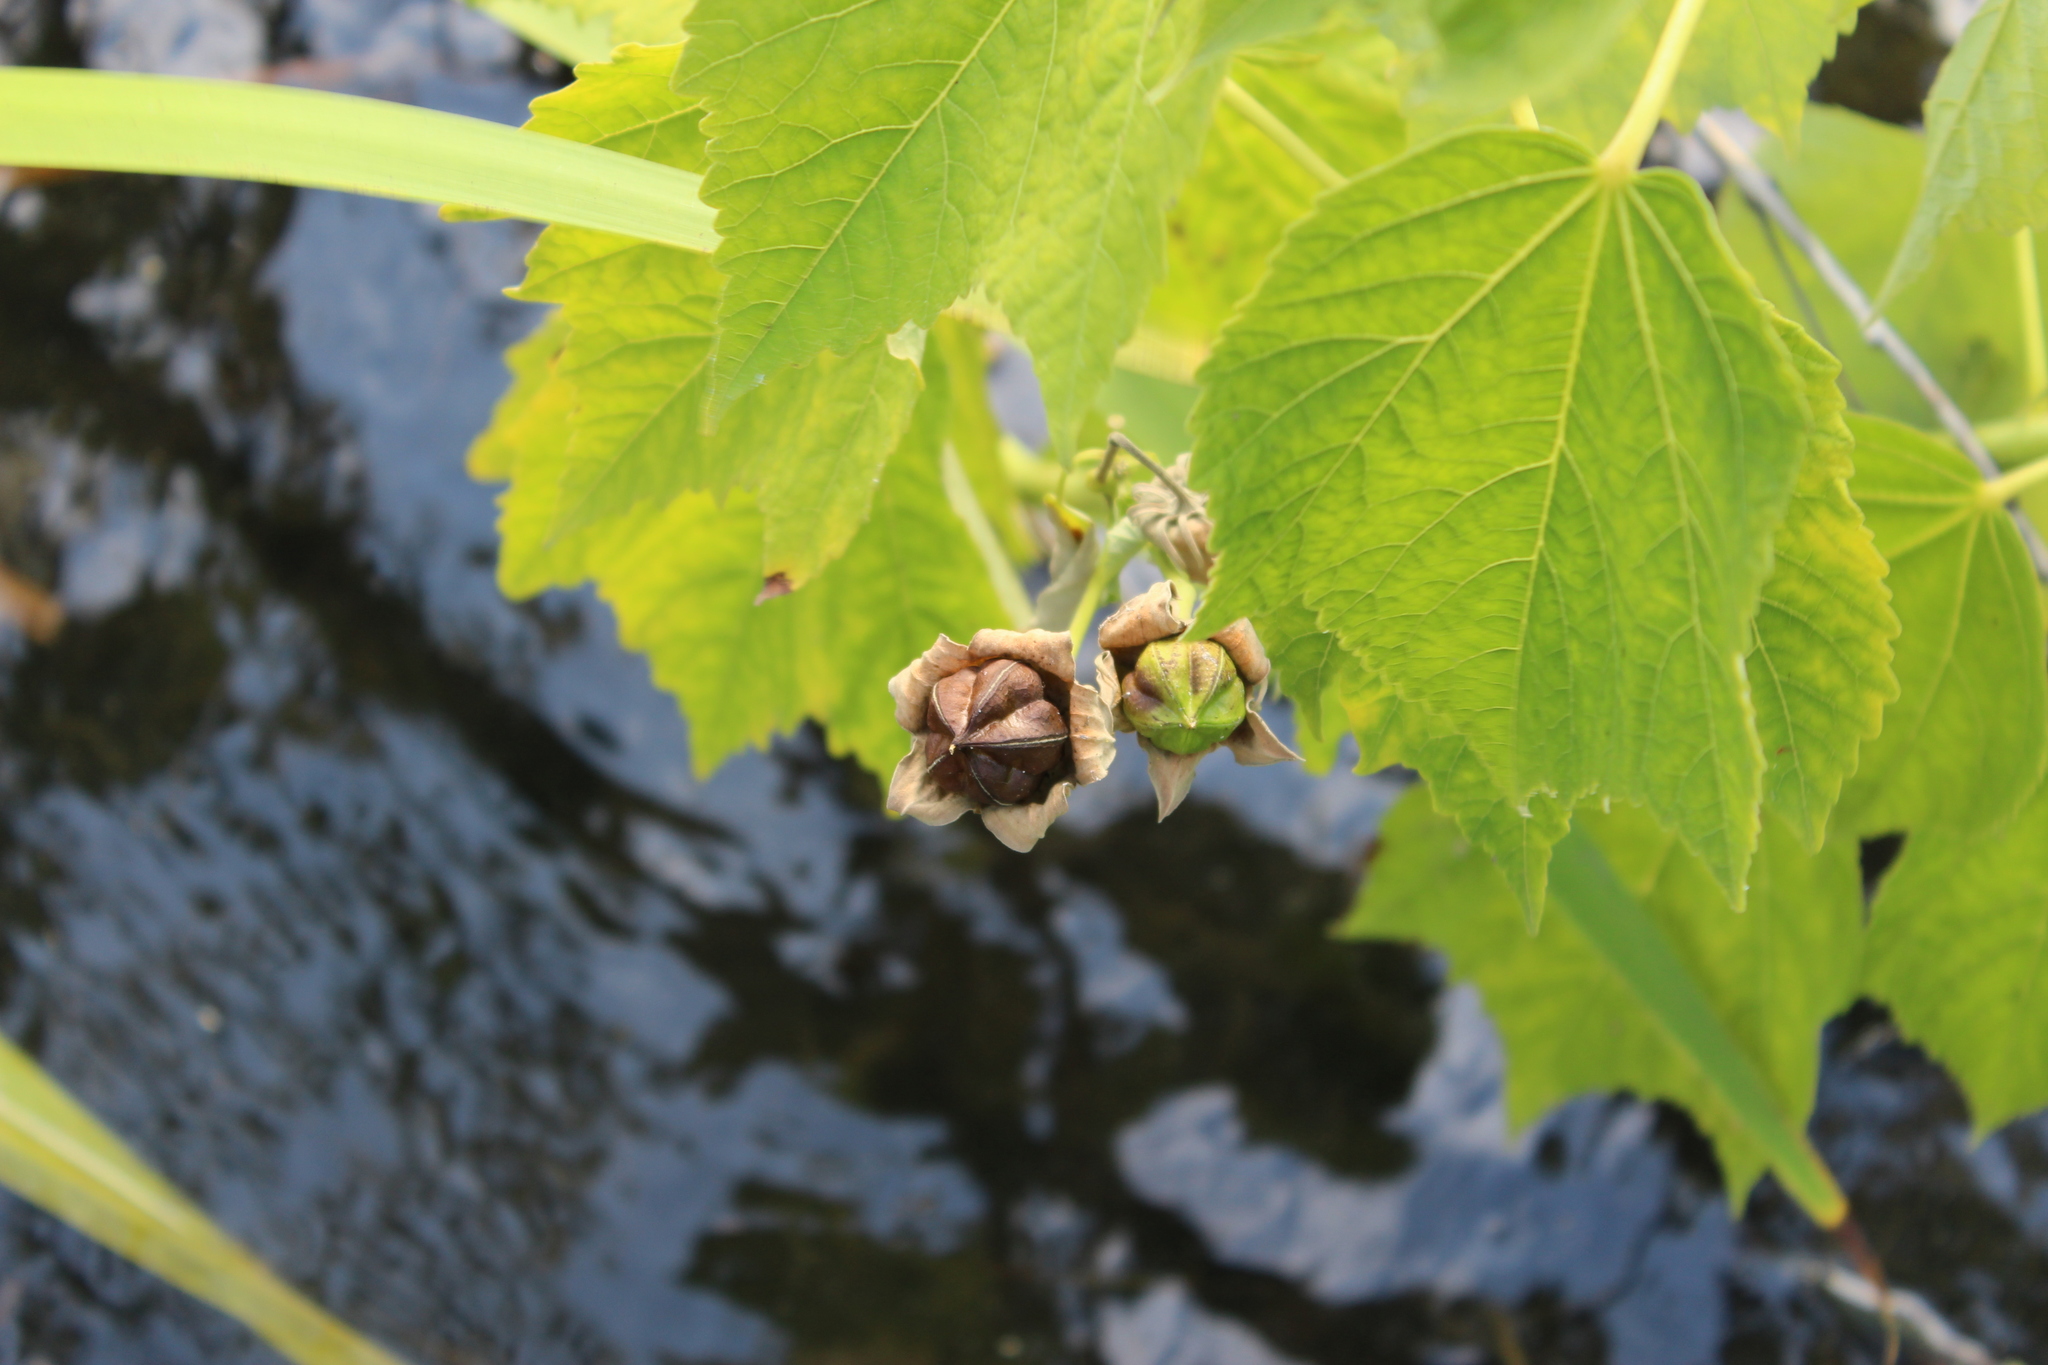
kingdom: Plantae
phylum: Tracheophyta
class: Magnoliopsida
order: Malvales
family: Malvaceae
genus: Hibiscus
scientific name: Hibiscus moscheutos
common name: Common rose-mallow
